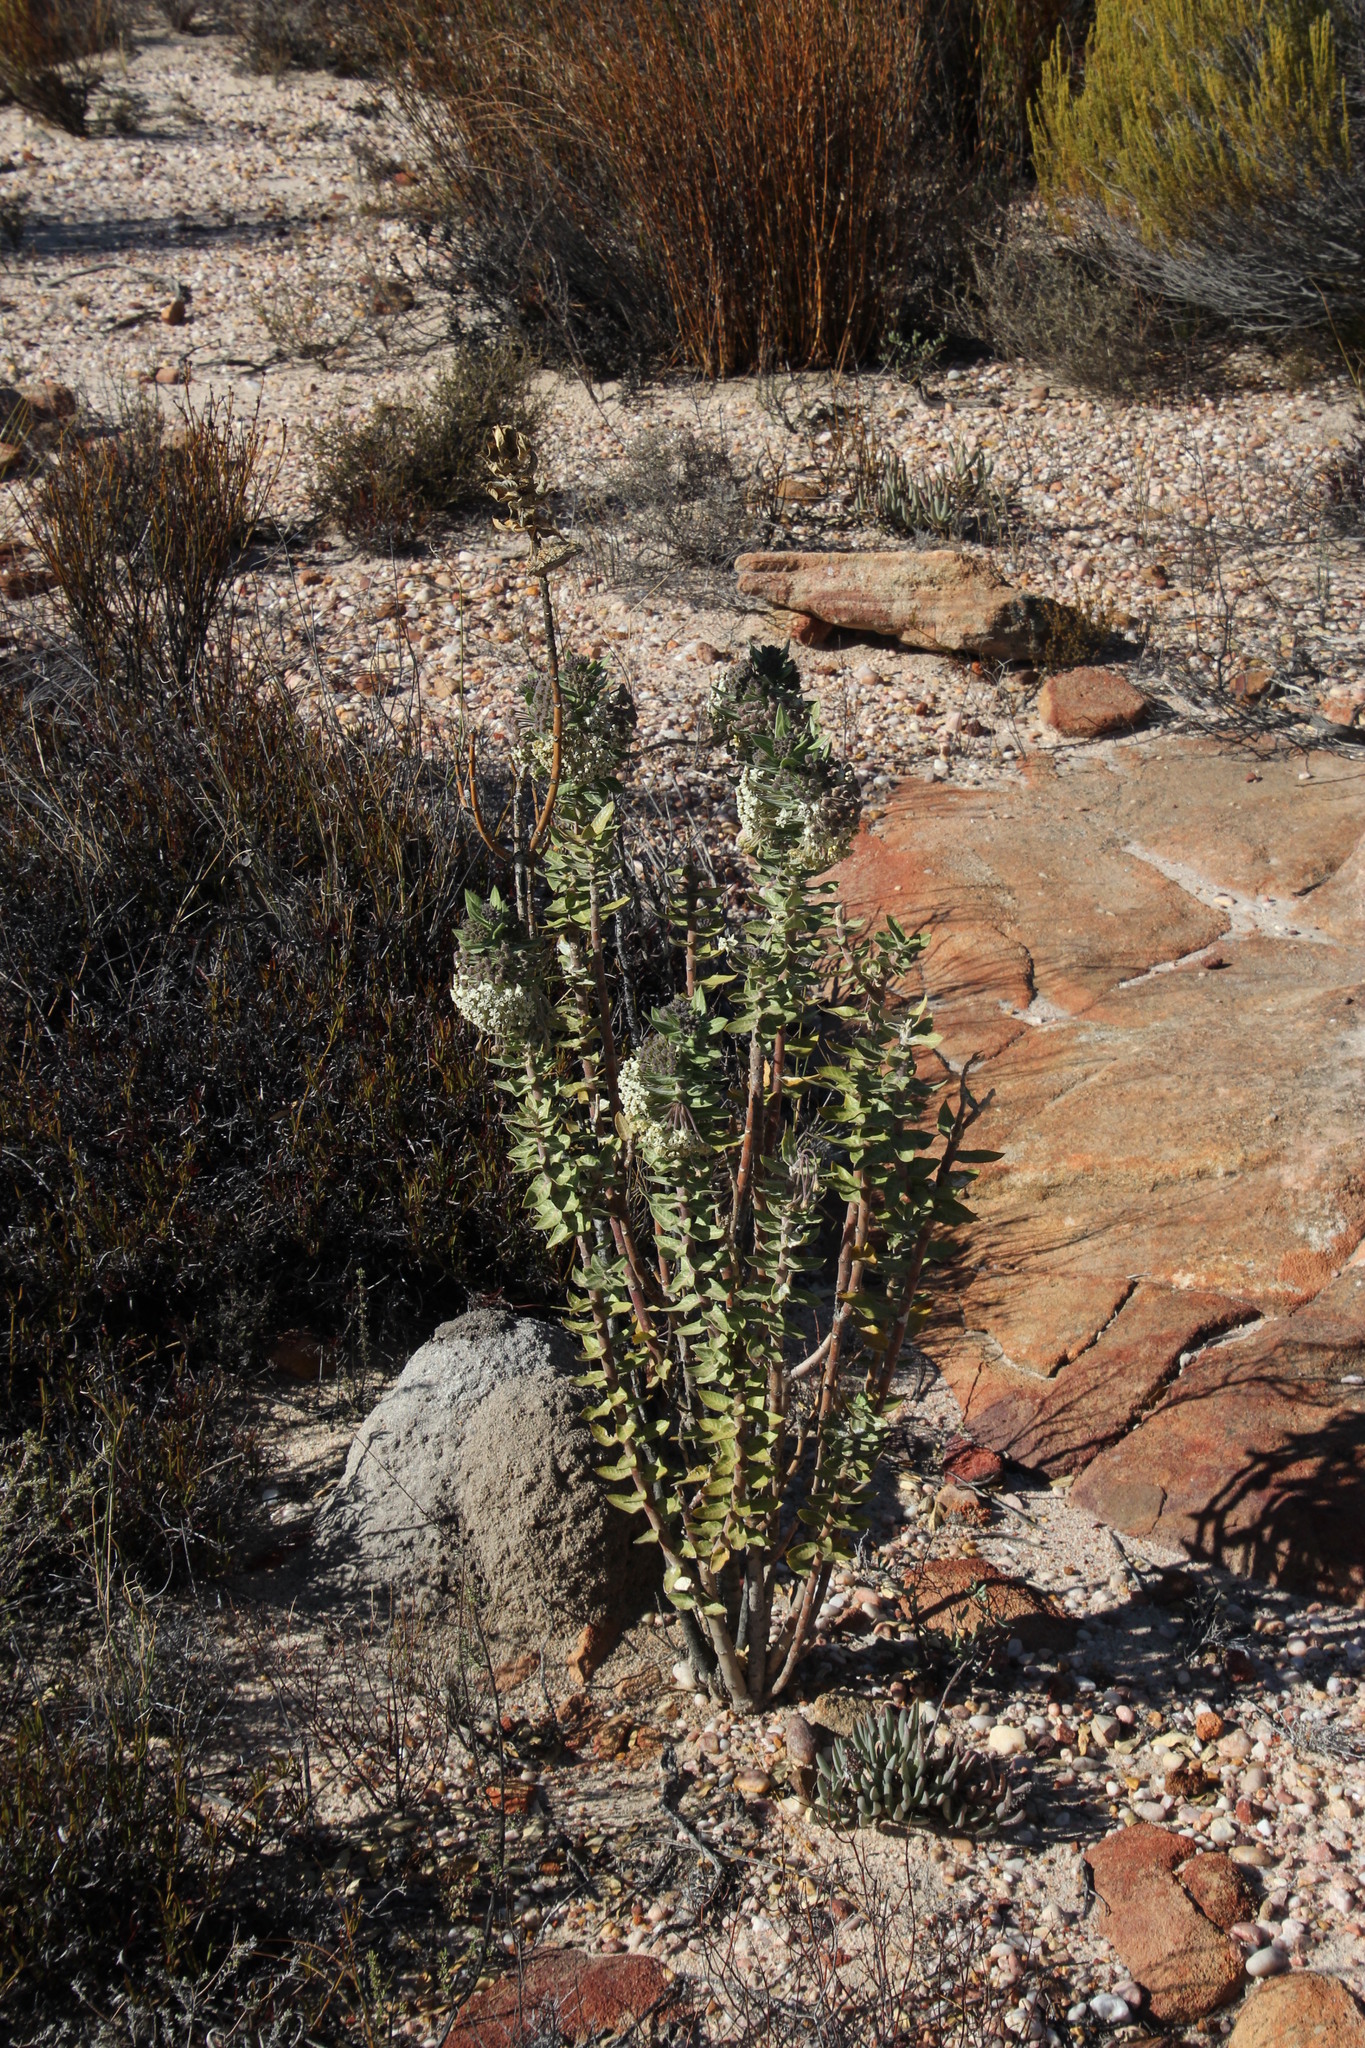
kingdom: Plantae
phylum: Tracheophyta
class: Magnoliopsida
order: Gentianales
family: Apocynaceae
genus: Gomphocarpus
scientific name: Gomphocarpus cancellatus
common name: Wild cotton
